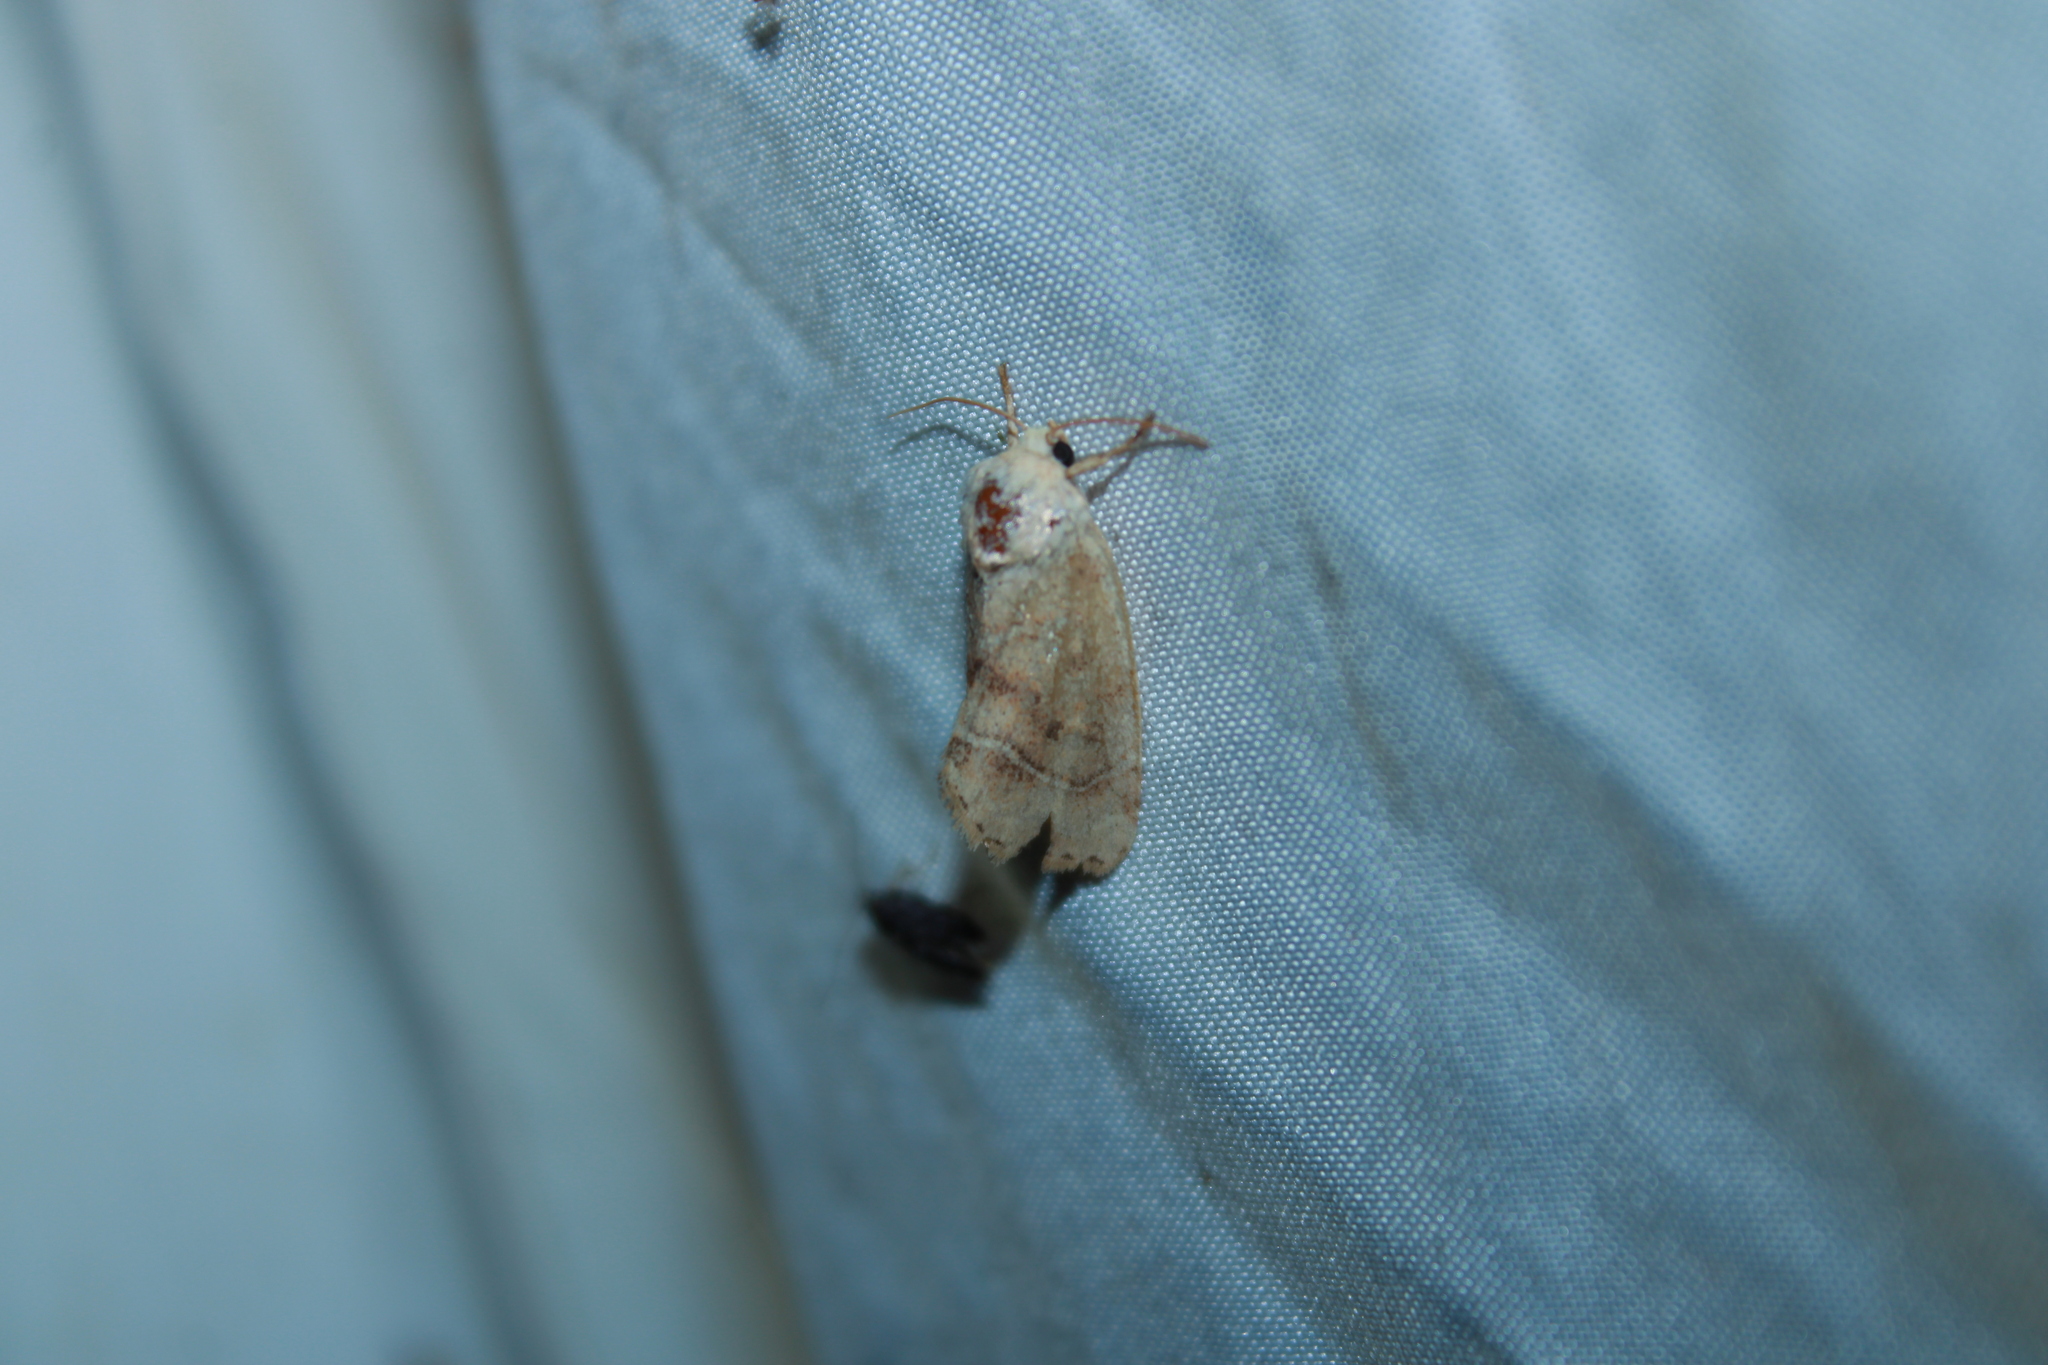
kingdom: Animalia
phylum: Arthropoda
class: Insecta
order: Lepidoptera
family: Noctuidae
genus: Cosmia
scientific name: Cosmia calami
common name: American dun-bar moth
